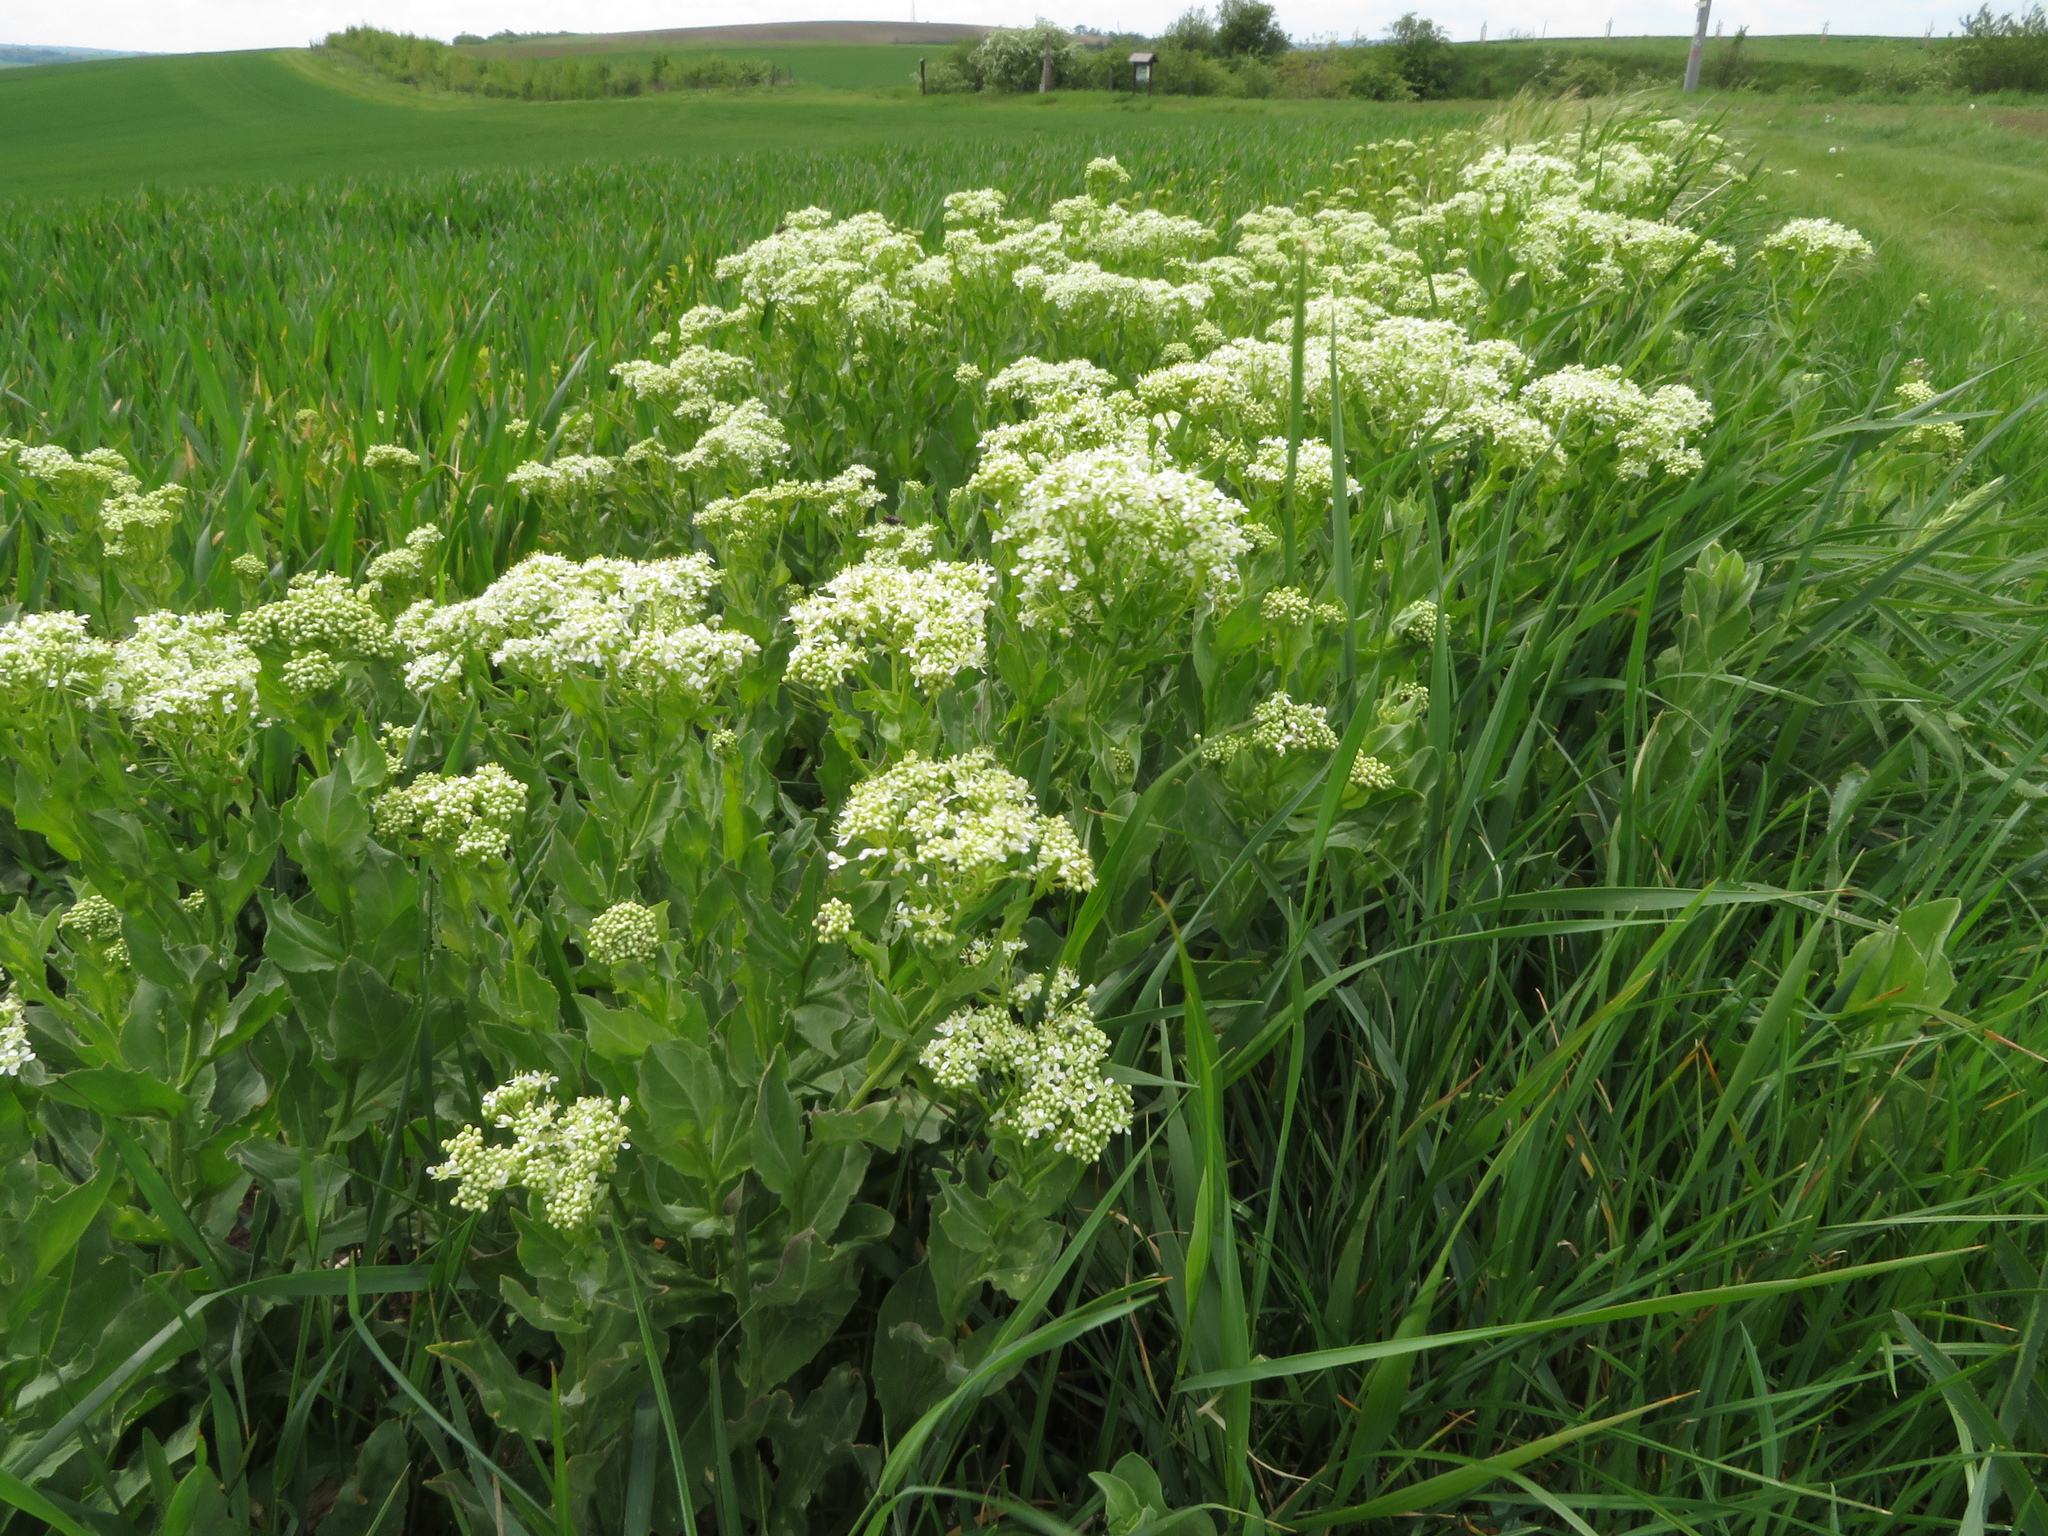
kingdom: Plantae
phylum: Tracheophyta
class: Magnoliopsida
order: Brassicales
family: Brassicaceae
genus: Lepidium
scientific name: Lepidium draba
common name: Hoary cress
